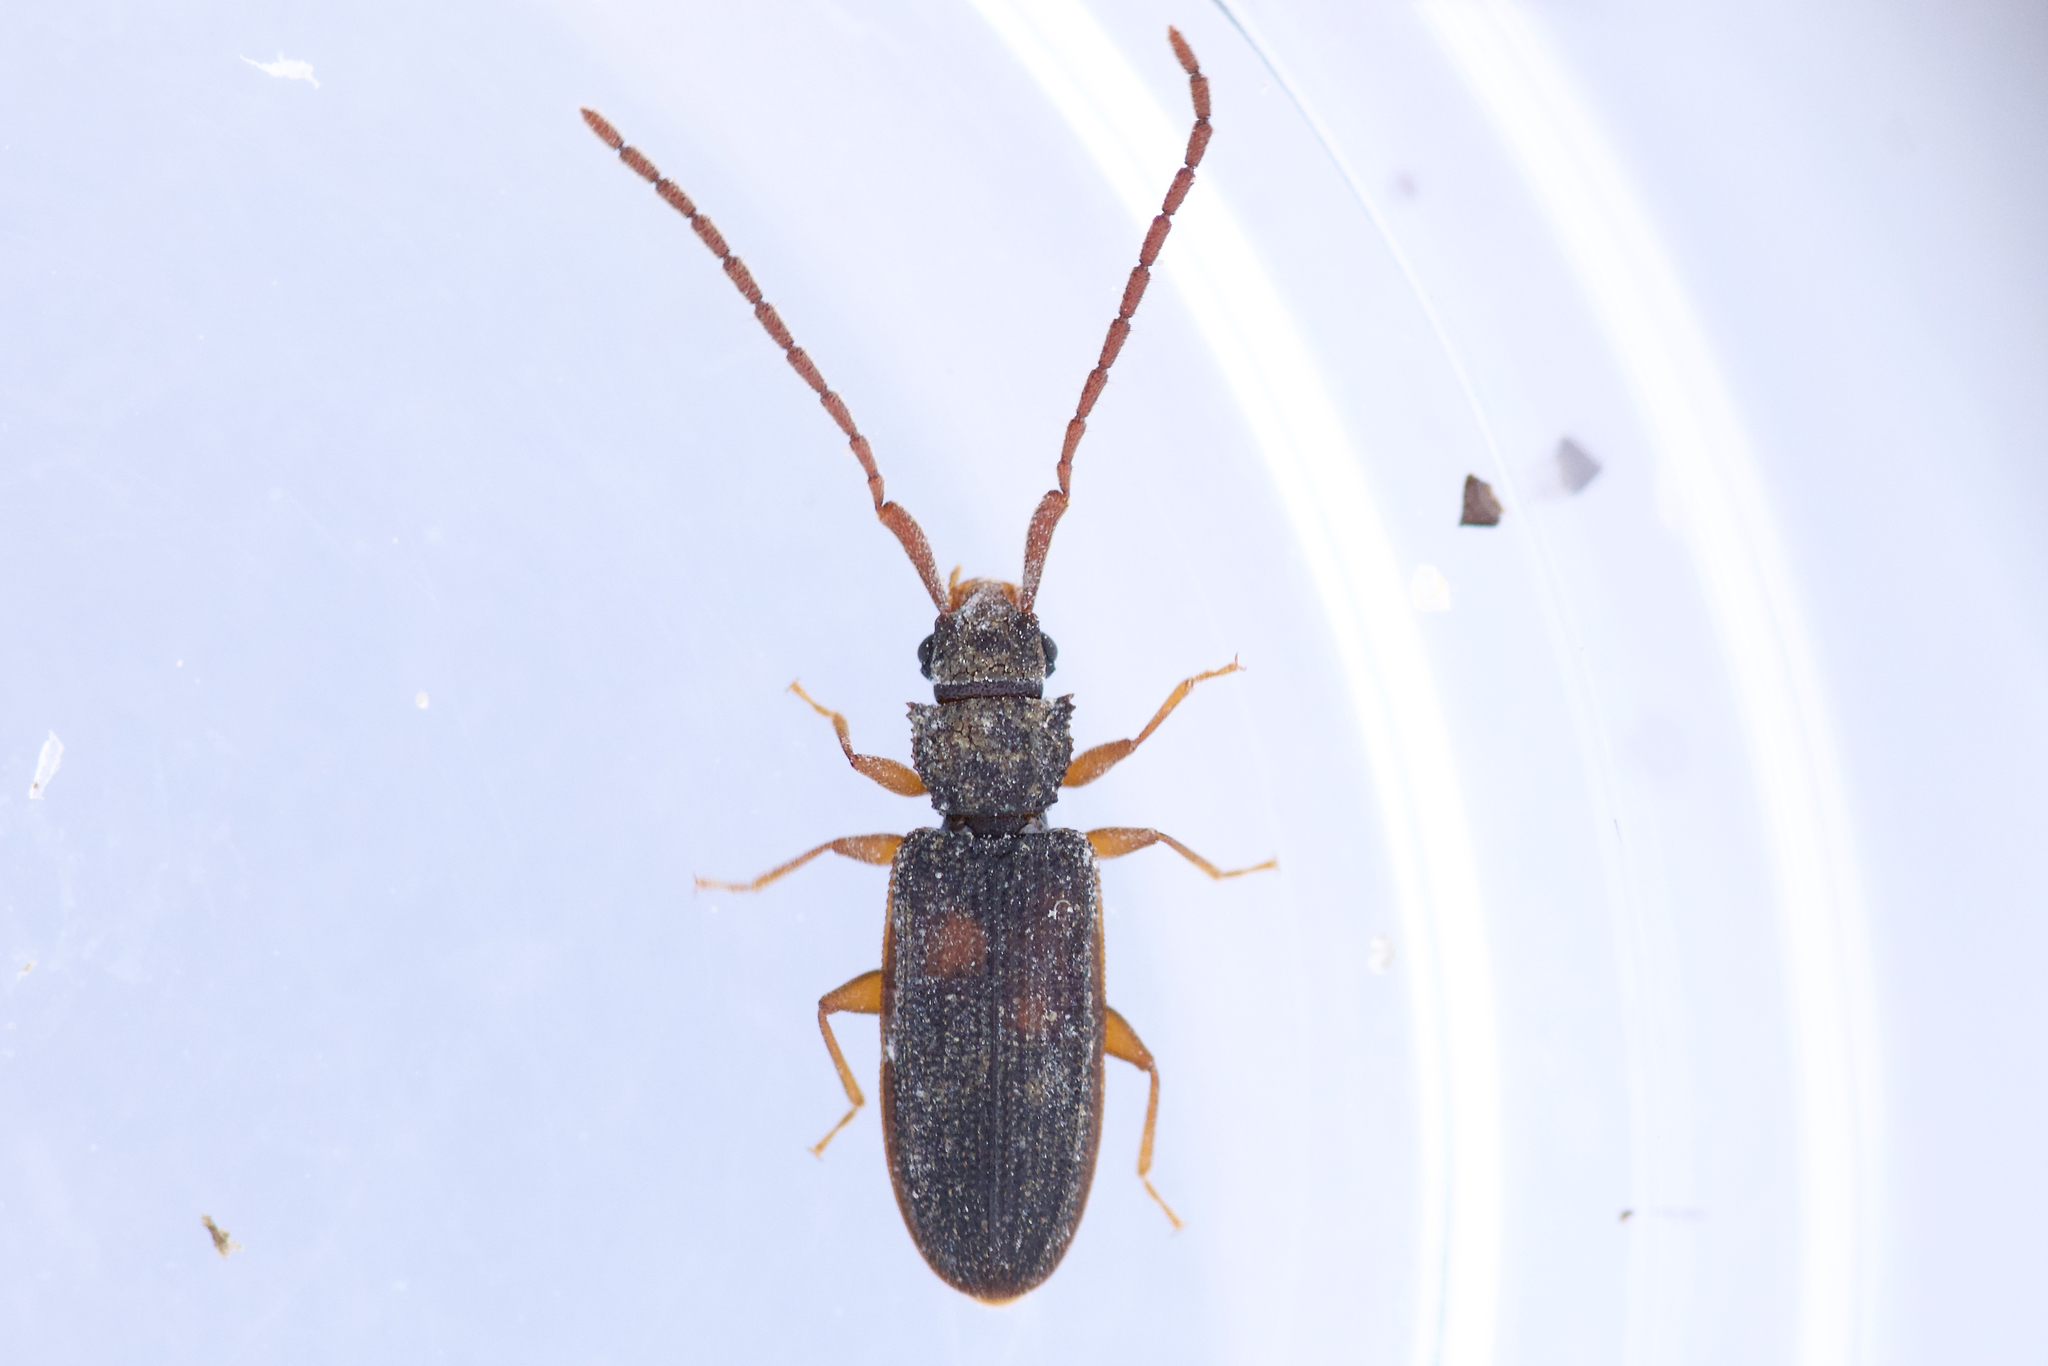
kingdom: Animalia
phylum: Arthropoda
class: Insecta
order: Coleoptera
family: Silvanidae
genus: Uleiota
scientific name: Uleiota debilis
